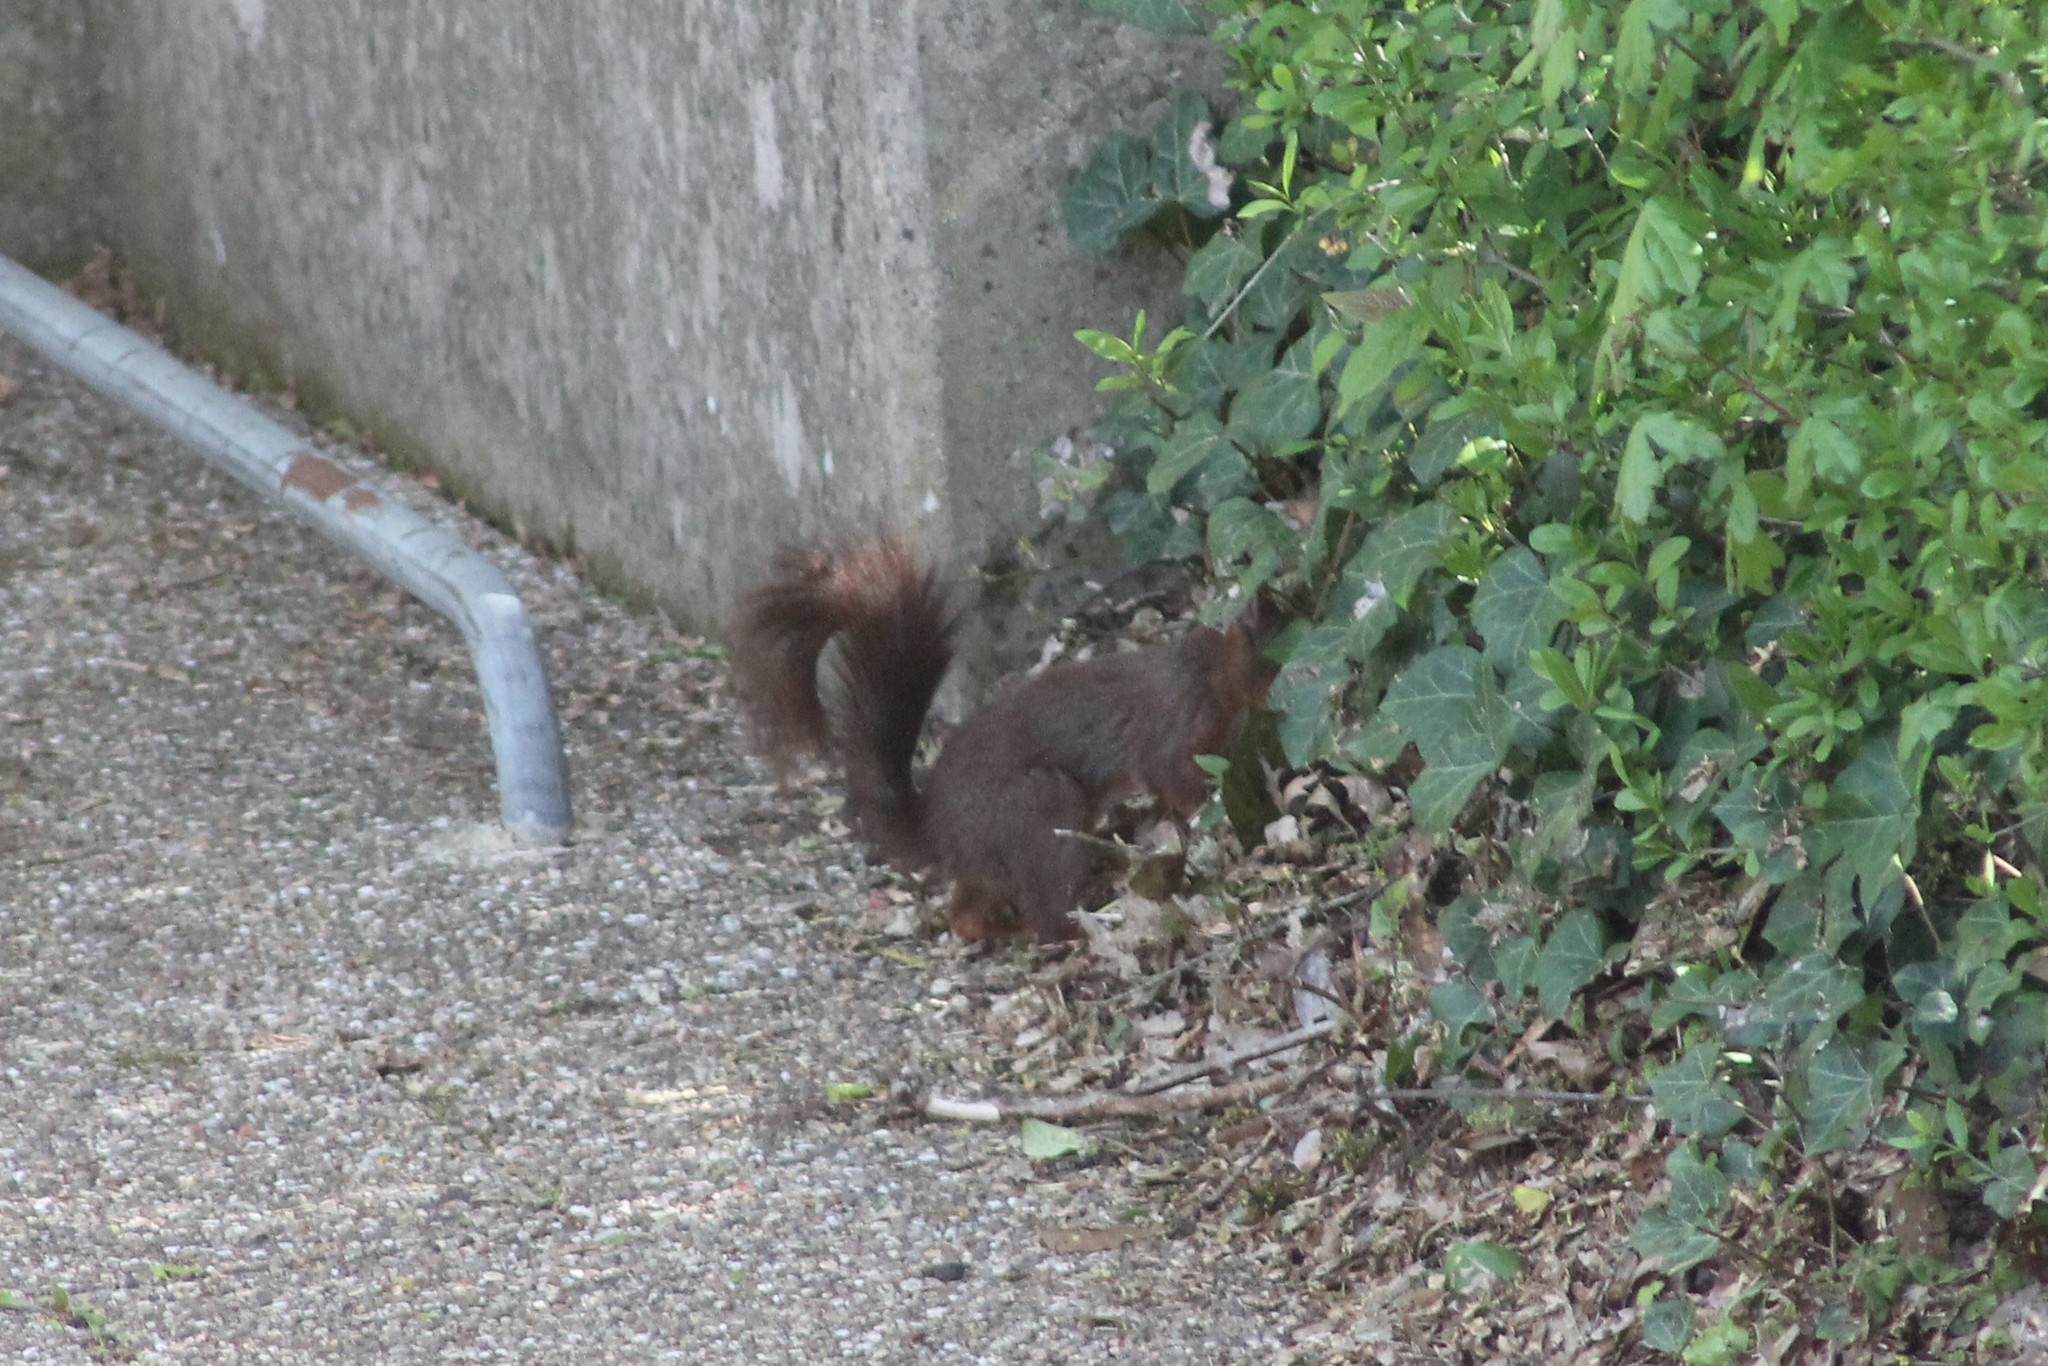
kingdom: Animalia
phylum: Chordata
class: Mammalia
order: Rodentia
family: Sciuridae
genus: Sciurus
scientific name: Sciurus vulgaris
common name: Eurasian red squirrel
